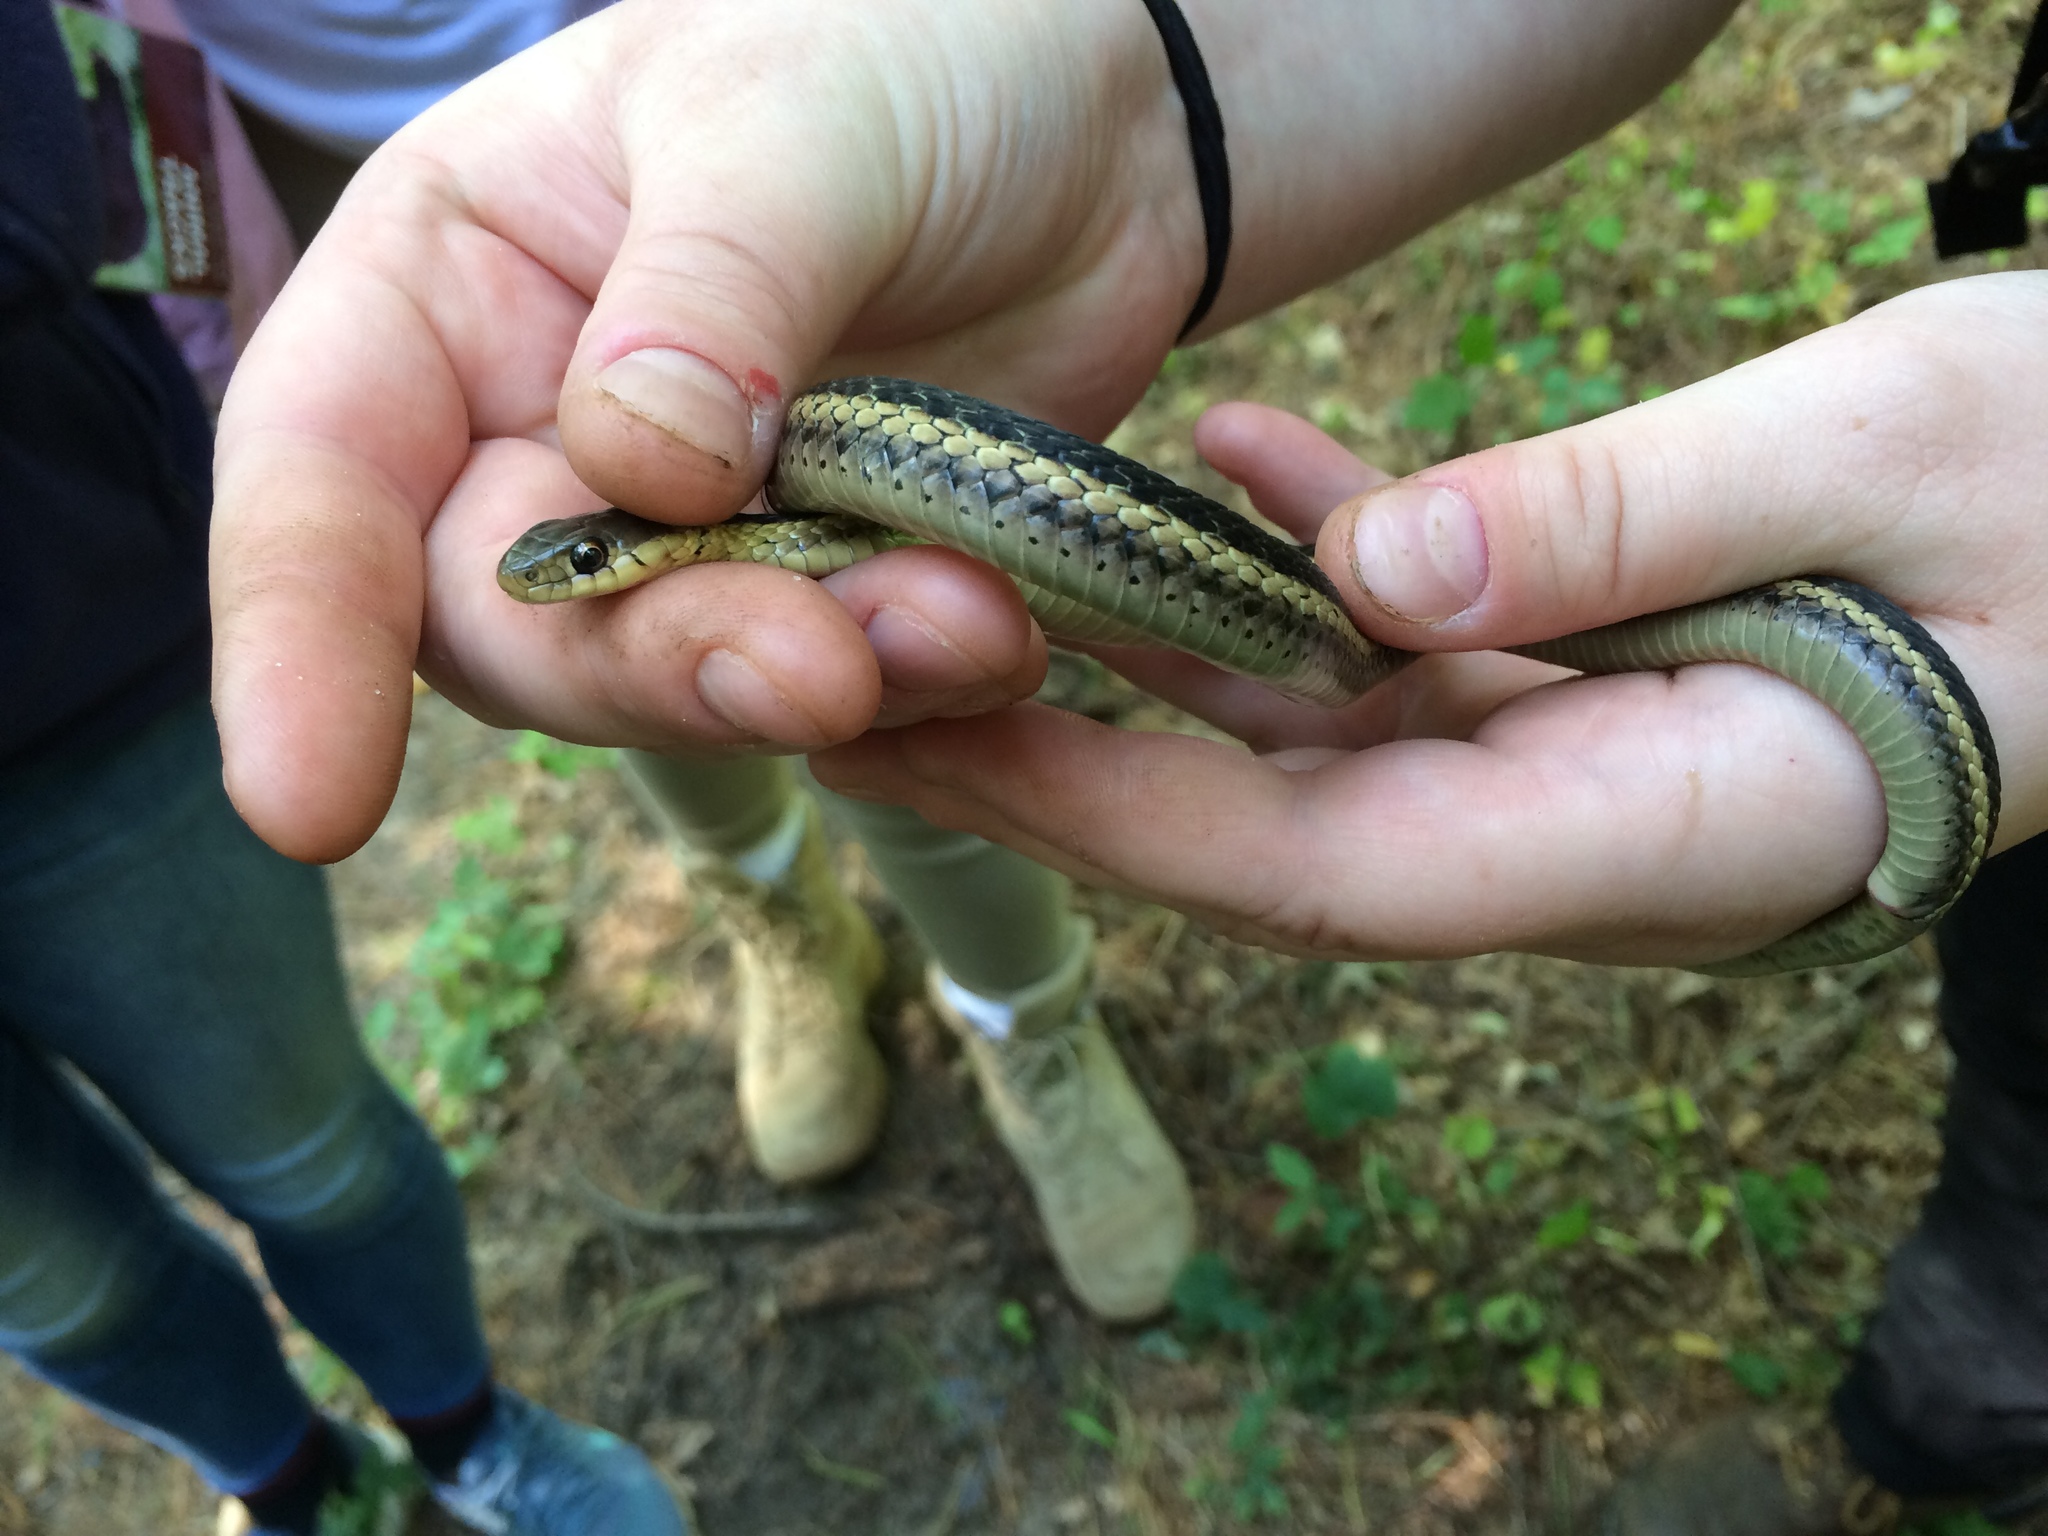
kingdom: Animalia
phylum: Chordata
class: Squamata
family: Colubridae
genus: Thamnophis
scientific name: Thamnophis sirtalis
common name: Common garter snake
